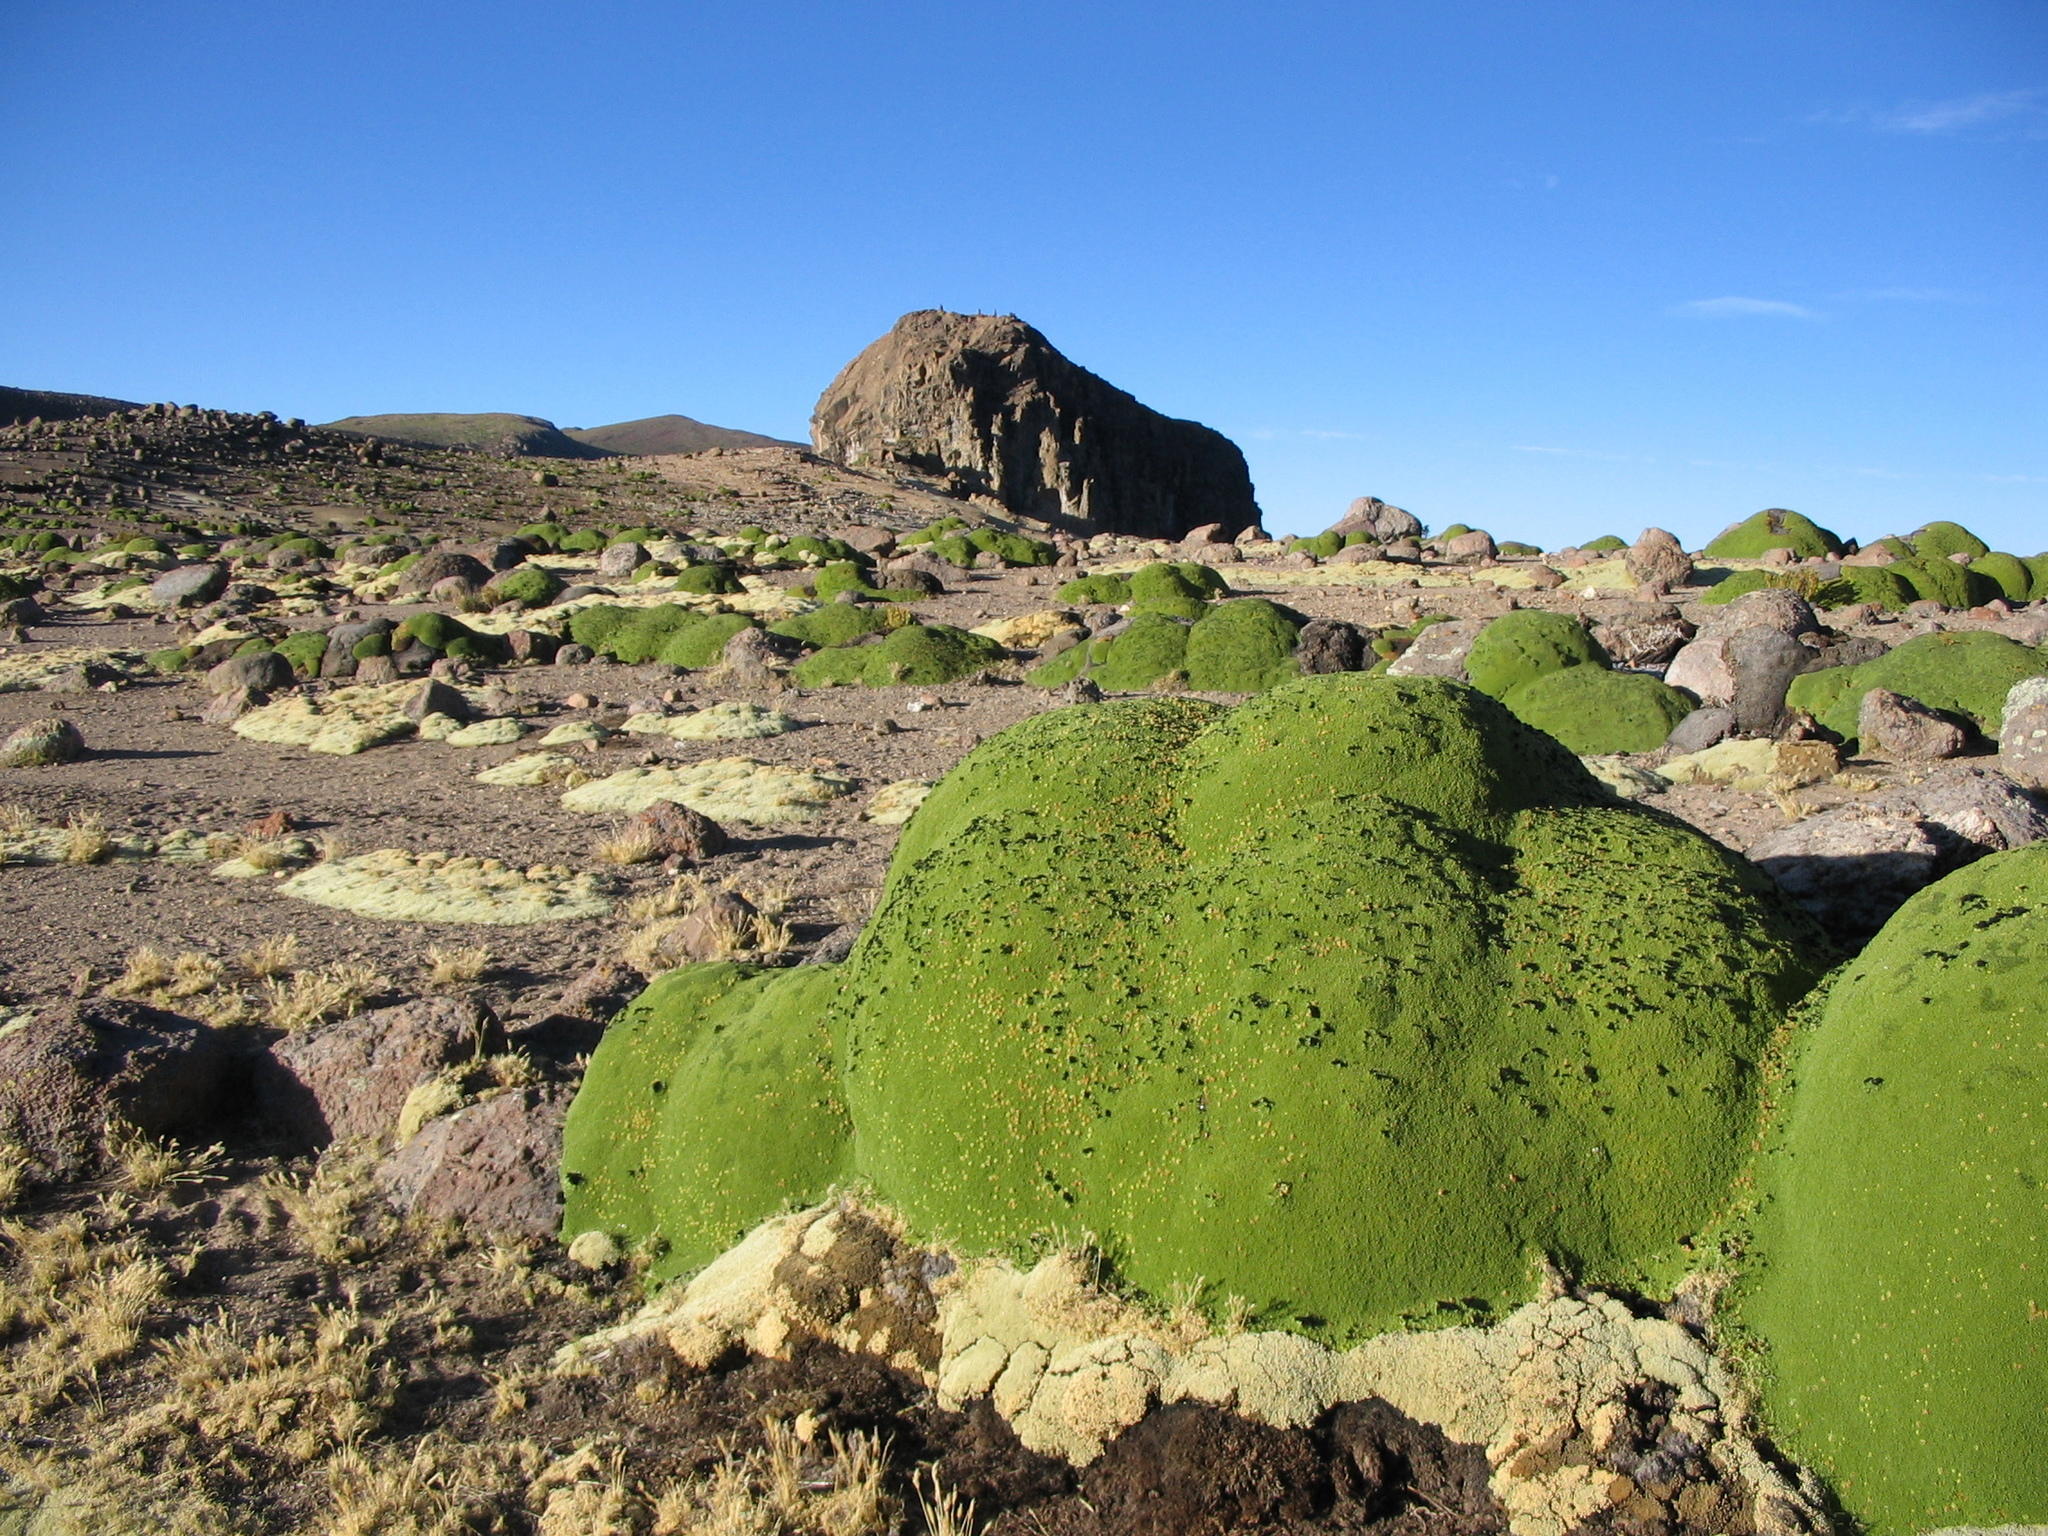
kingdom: Plantae
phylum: Tracheophyta
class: Magnoliopsida
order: Apiales
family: Apiaceae
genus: Azorella
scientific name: Azorella compacta
